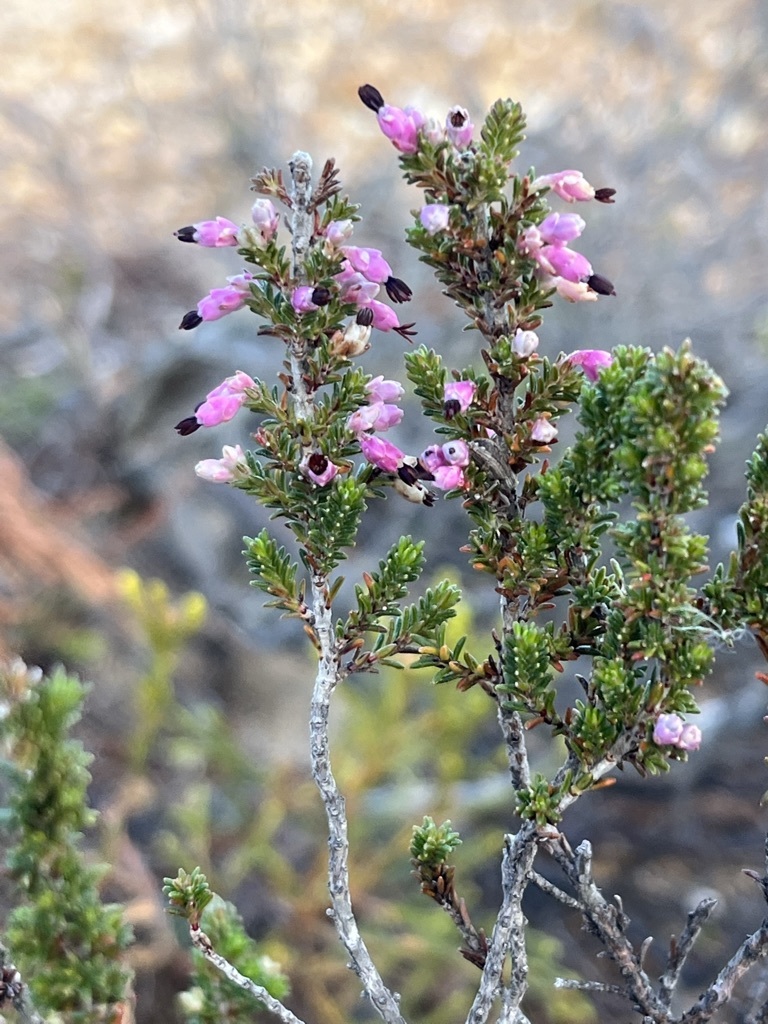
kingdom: Plantae
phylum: Tracheophyta
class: Magnoliopsida
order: Ericales
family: Ericaceae
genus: Erica
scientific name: Erica placentiflora
